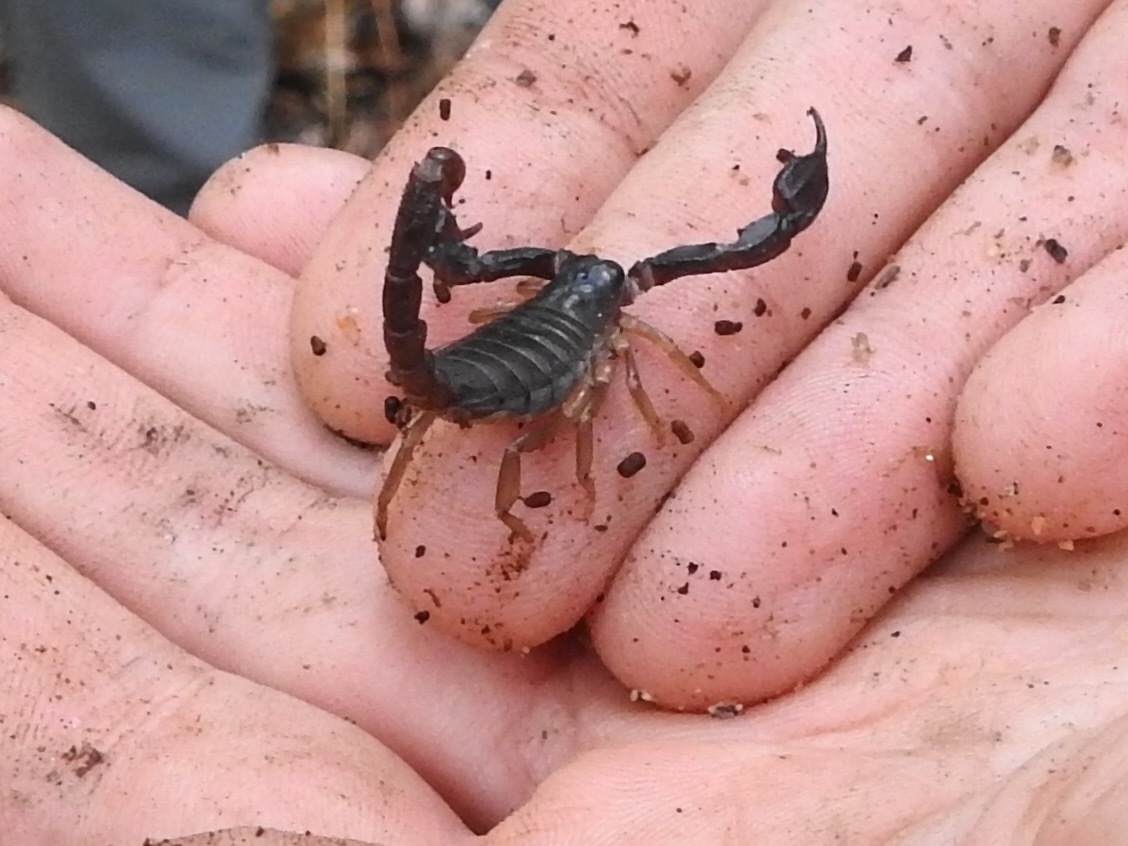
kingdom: Animalia
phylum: Arthropoda
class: Arachnida
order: Scorpiones
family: Chactidae
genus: Uroctonus
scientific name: Uroctonus mordax
